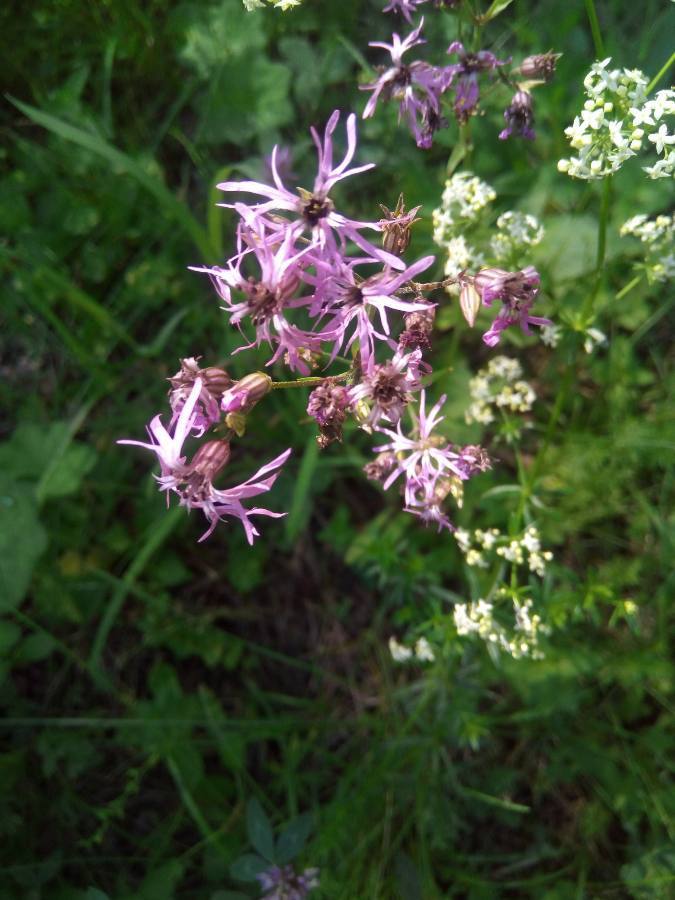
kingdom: Plantae
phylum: Tracheophyta
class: Magnoliopsida
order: Caryophyllales
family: Caryophyllaceae
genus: Silene
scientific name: Silene flos-cuculi
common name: Ragged-robin
